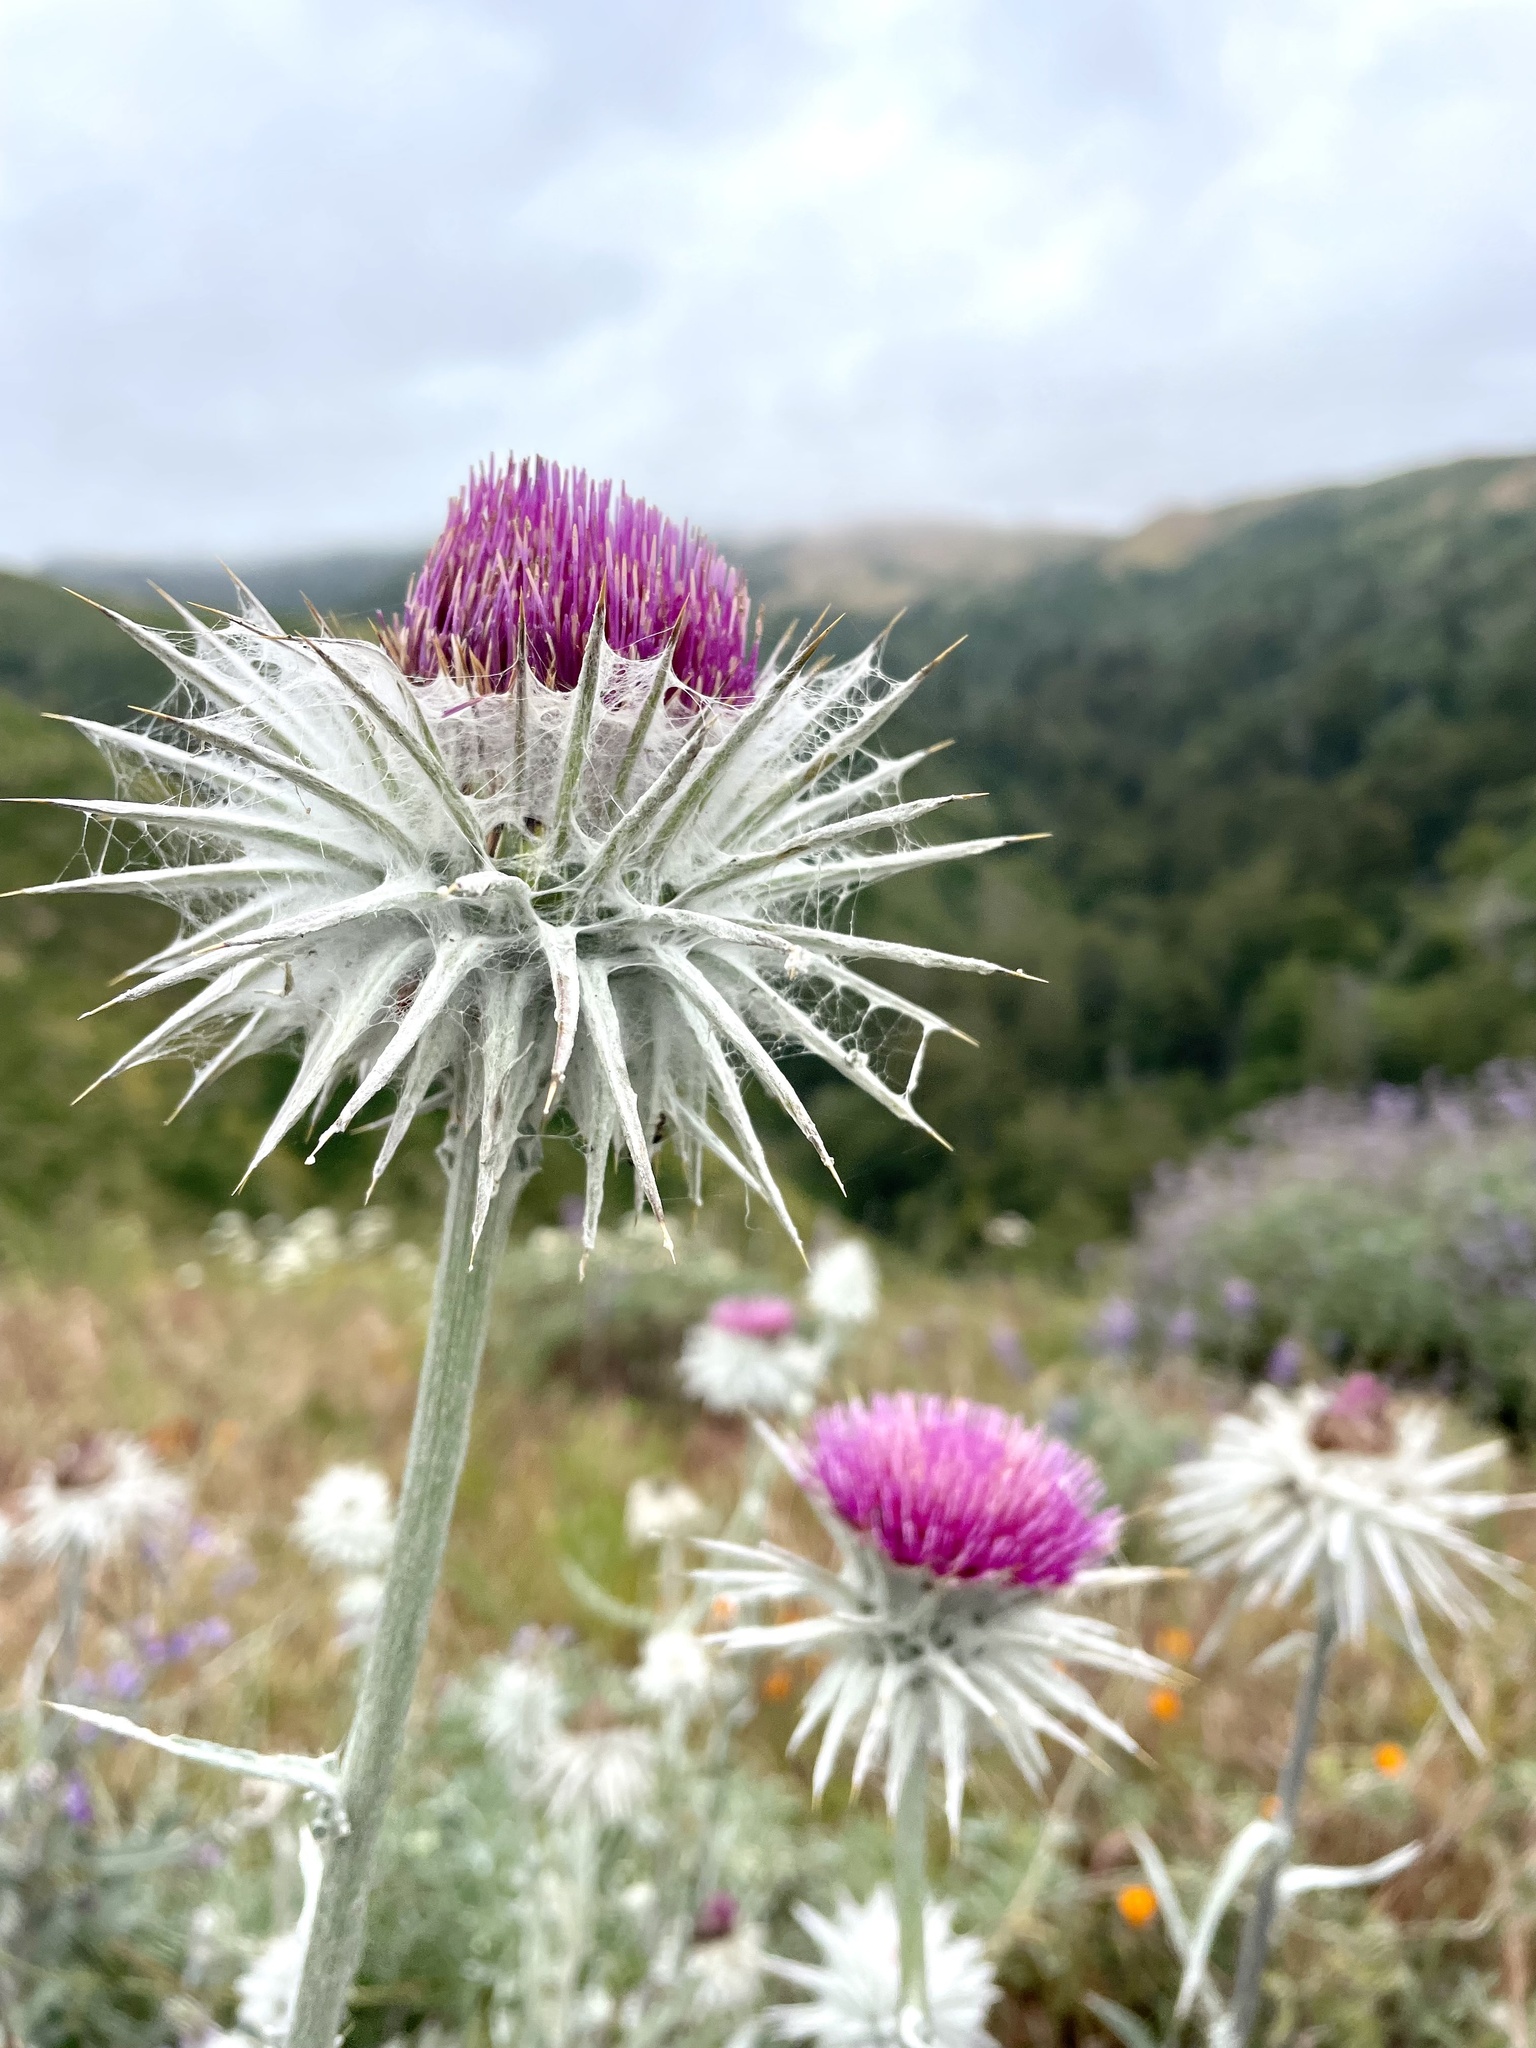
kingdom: Plantae
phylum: Tracheophyta
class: Magnoliopsida
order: Asterales
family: Asteraceae
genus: Cirsium
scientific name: Cirsium occidentale
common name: Western thistle
